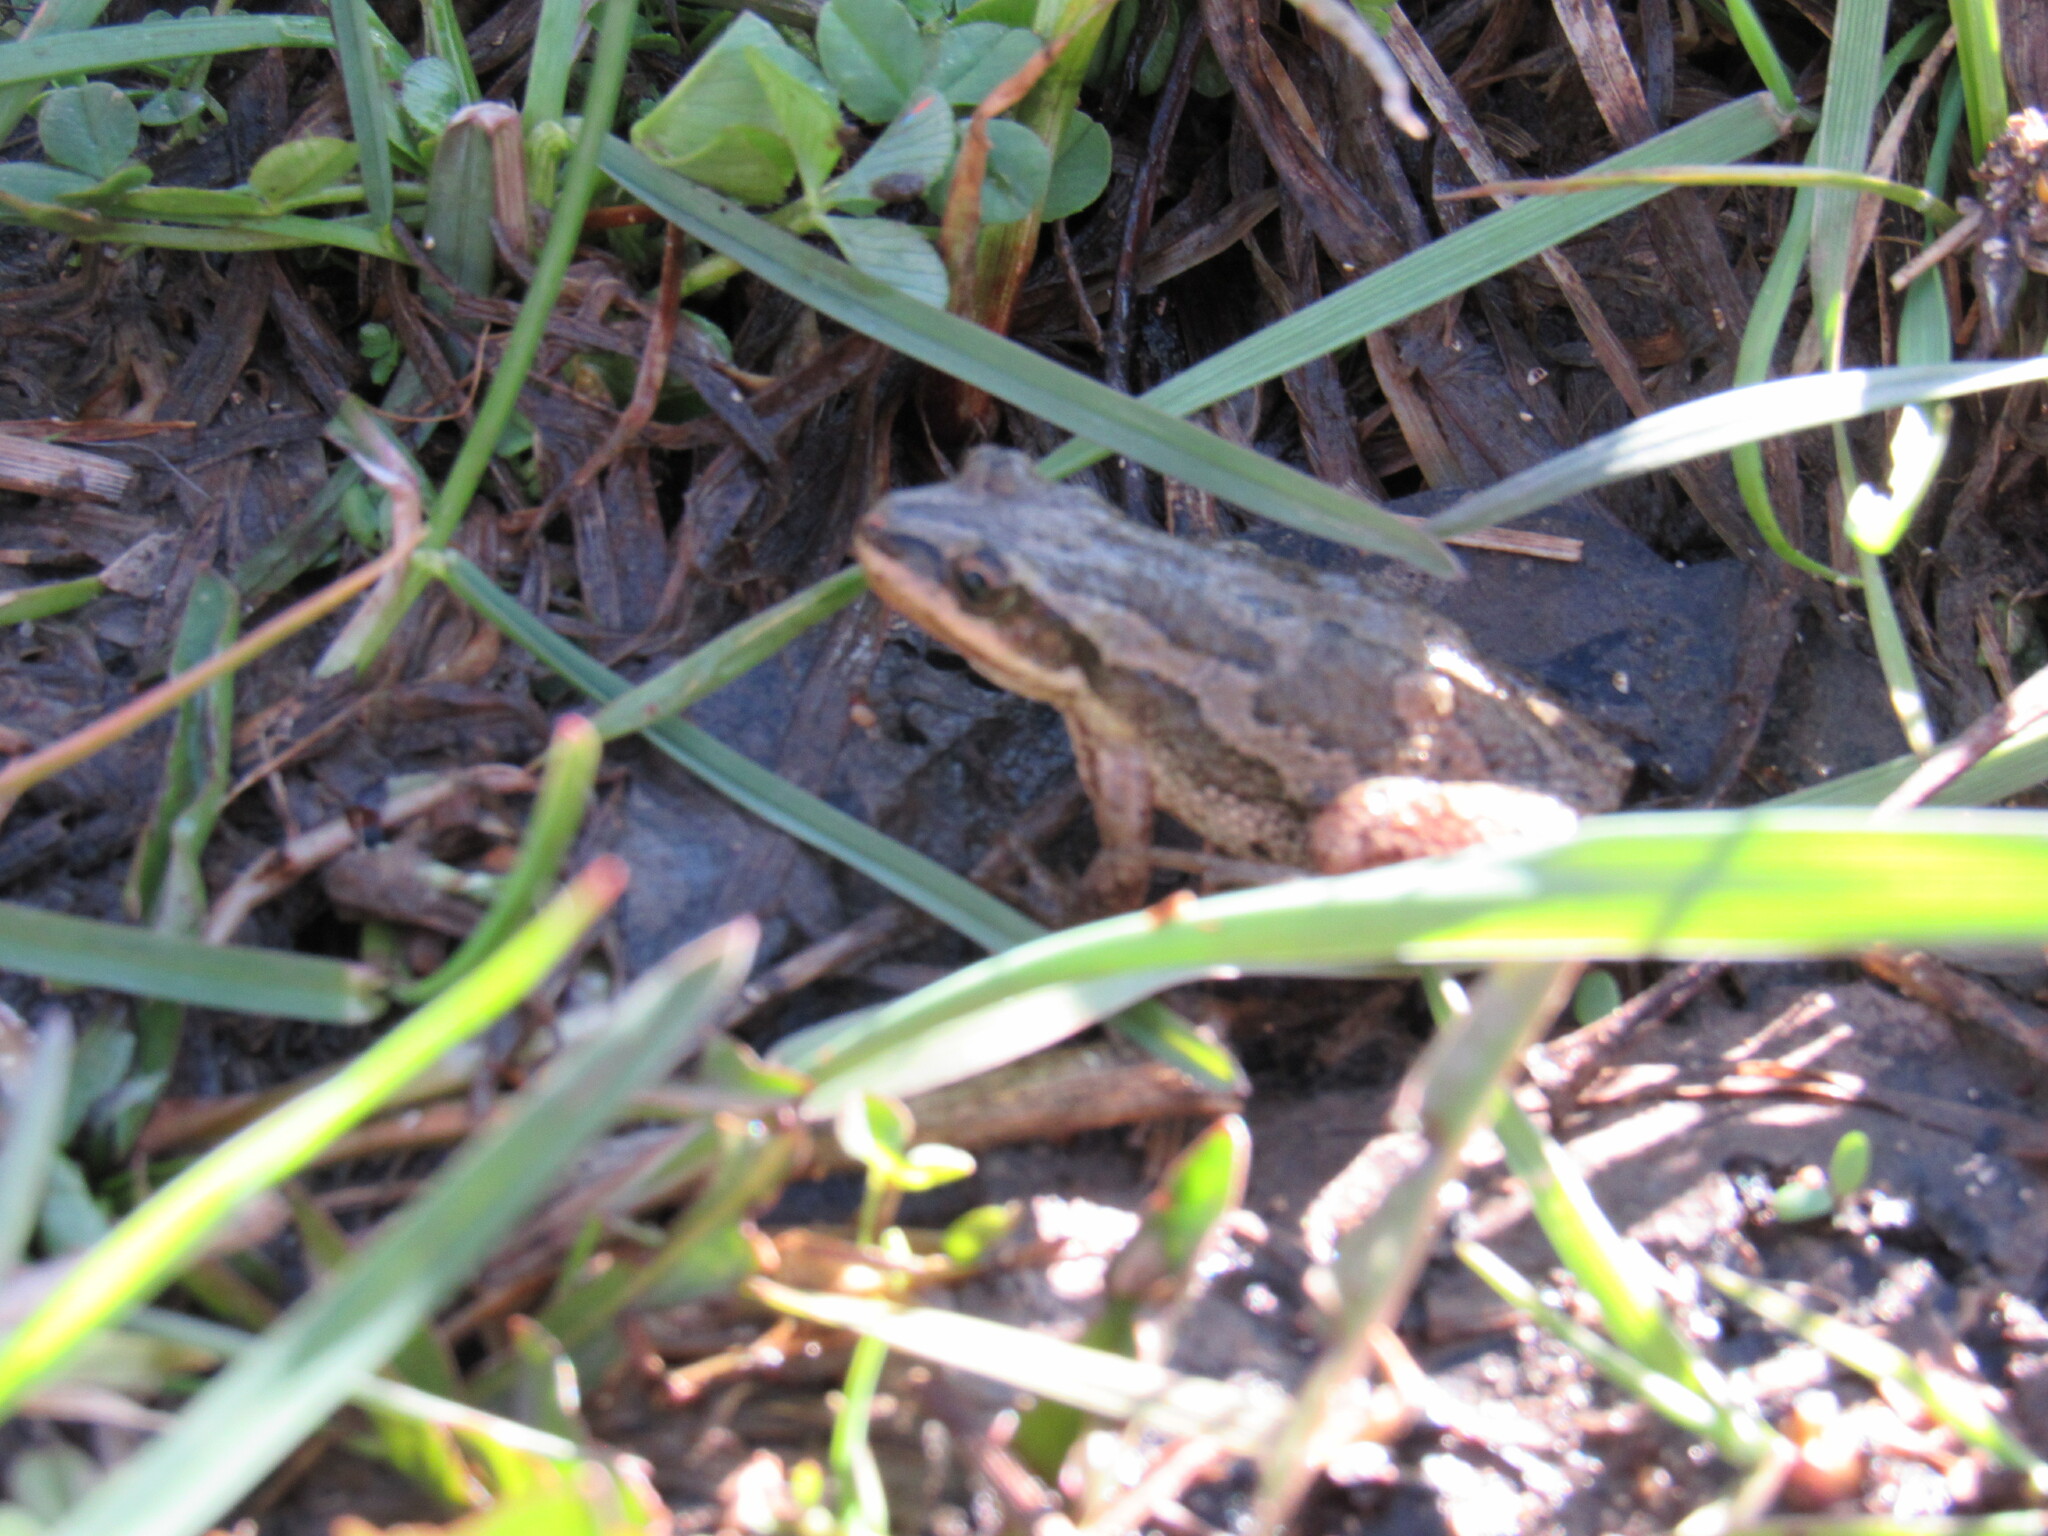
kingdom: Animalia
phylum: Chordata
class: Amphibia
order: Anura
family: Hylidae
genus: Pseudacris
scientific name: Pseudacris maculata
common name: Boreal chorus frog
